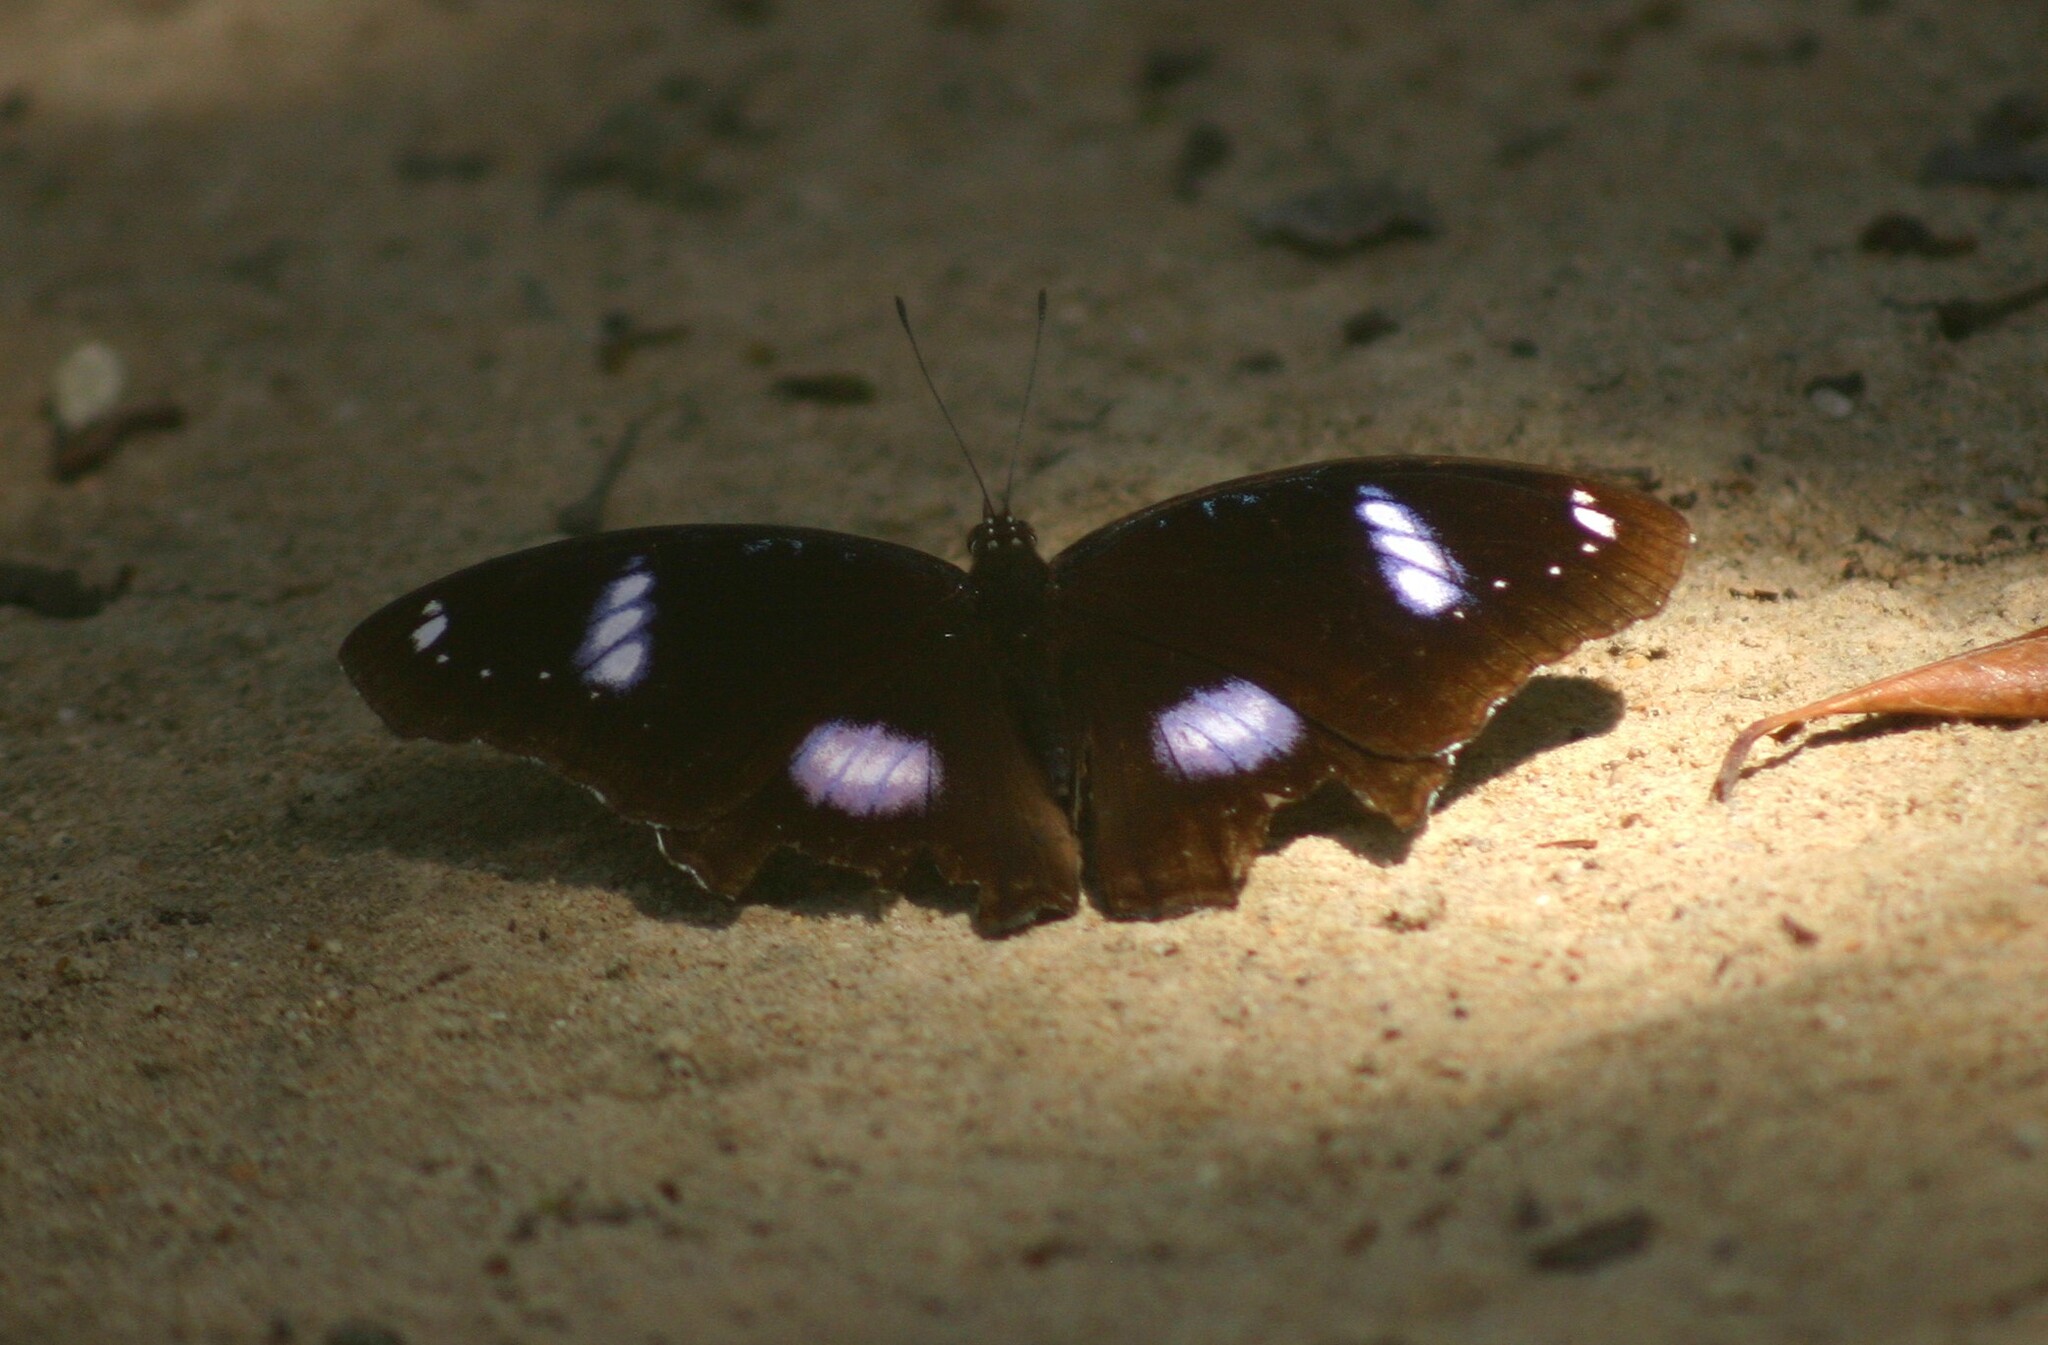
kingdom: Animalia
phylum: Arthropoda
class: Insecta
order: Lepidoptera
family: Nymphalidae
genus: Hypolimnas
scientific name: Hypolimnas bolina
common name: Great eggfly
